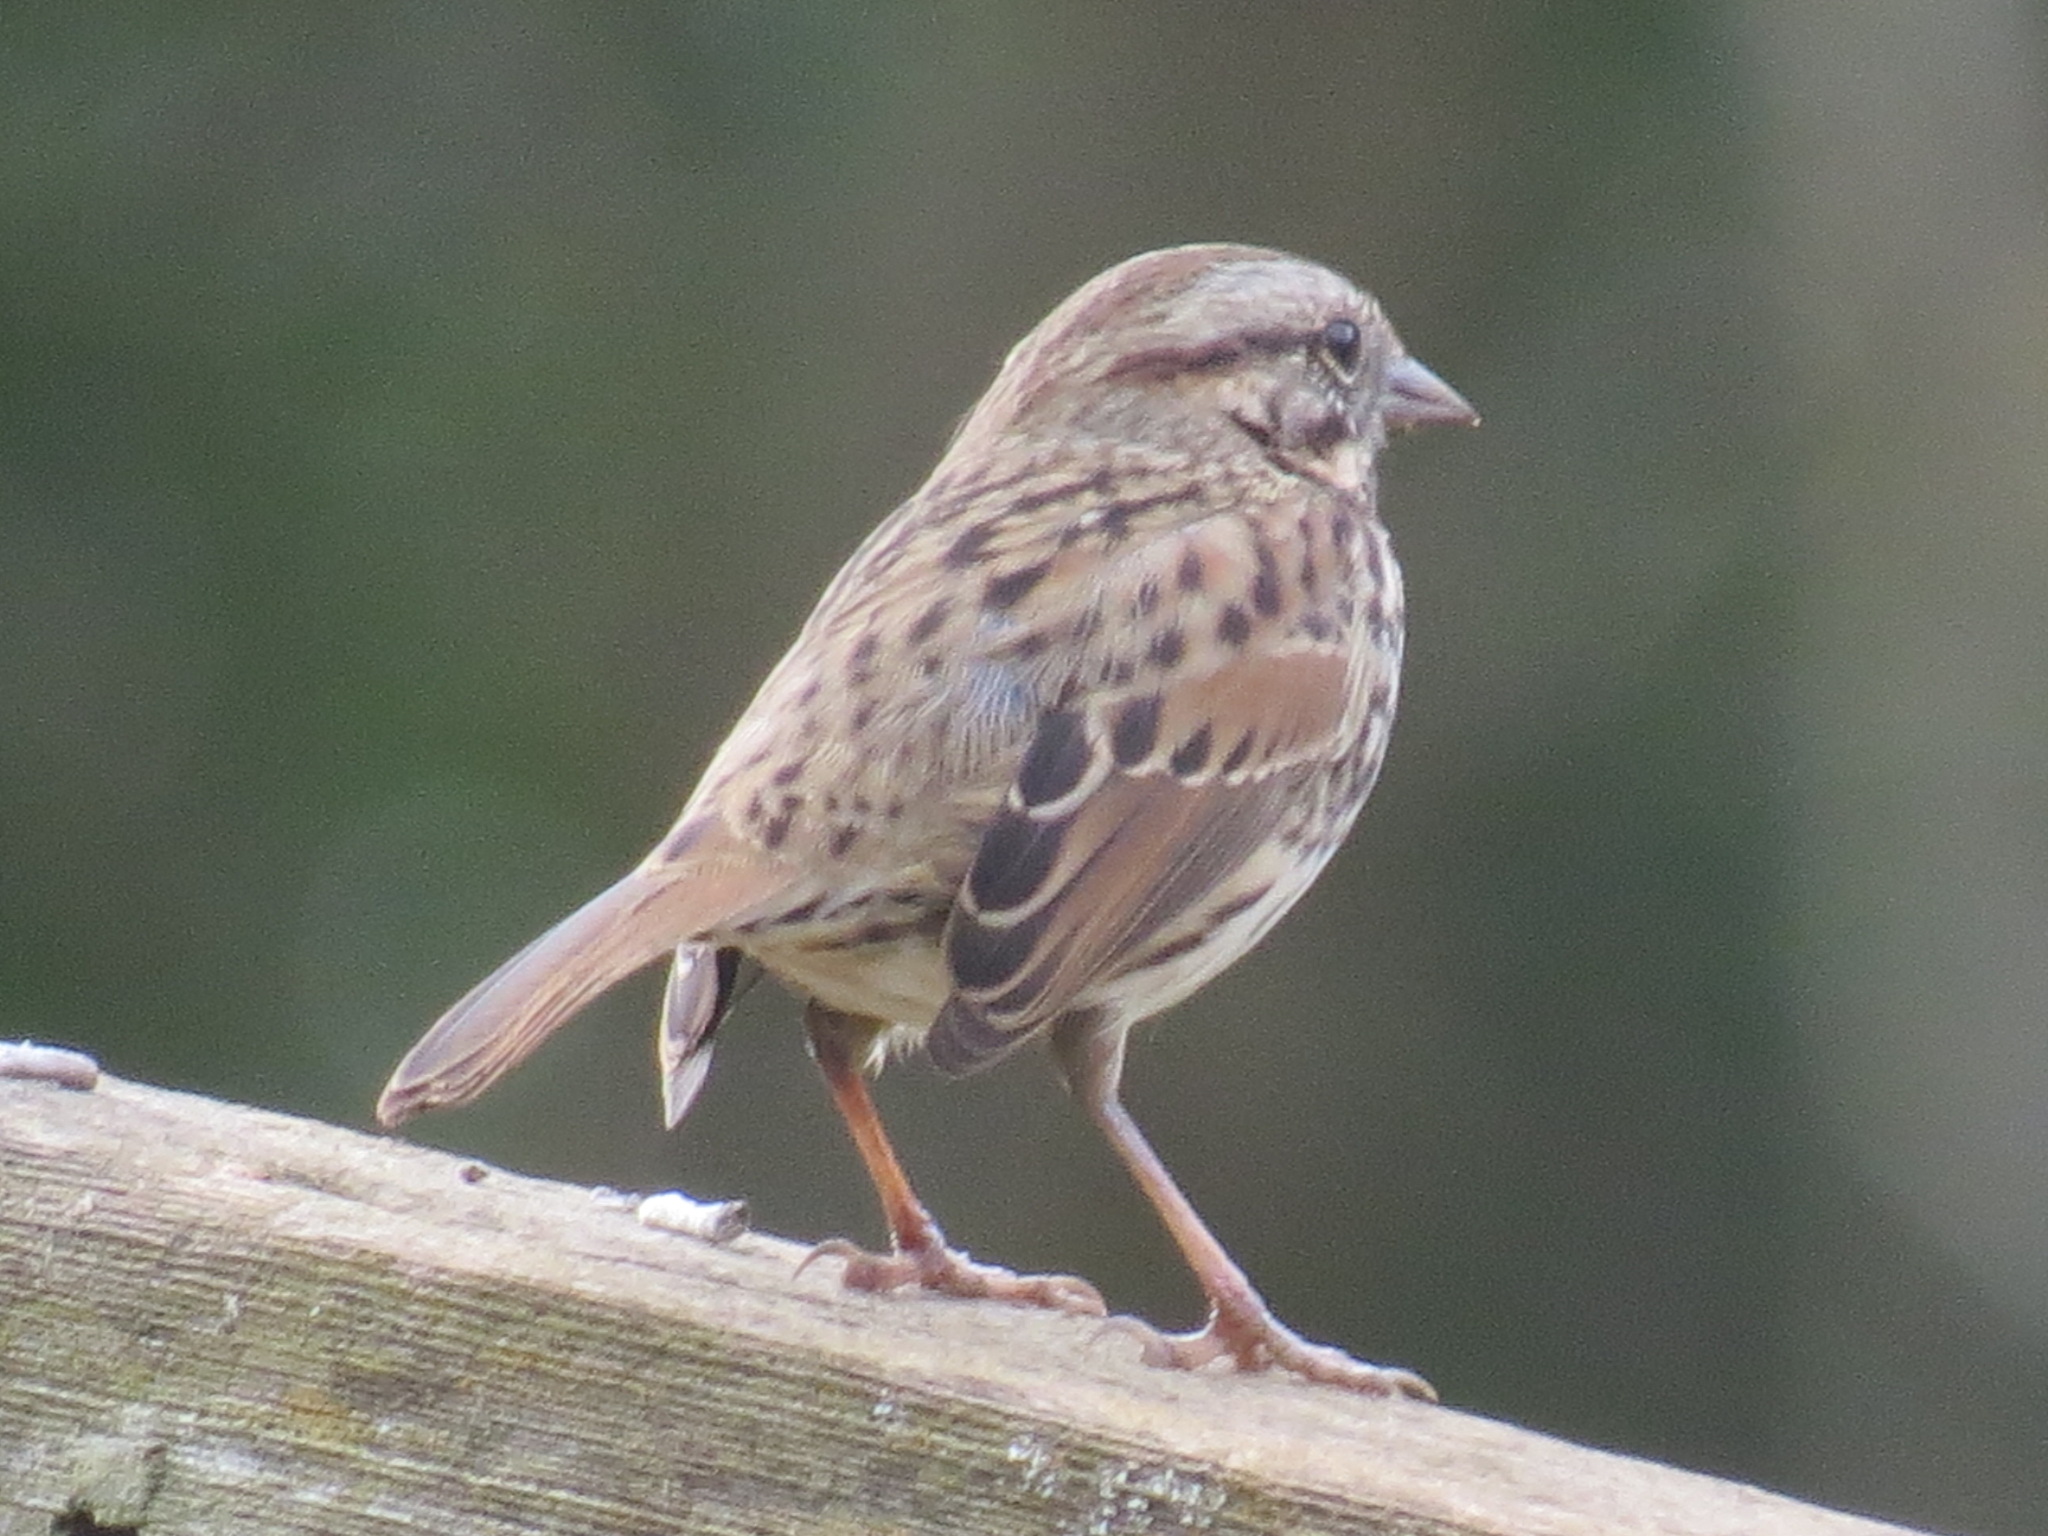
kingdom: Animalia
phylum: Chordata
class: Aves
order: Passeriformes
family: Passerellidae
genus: Melospiza
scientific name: Melospiza melodia
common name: Song sparrow
